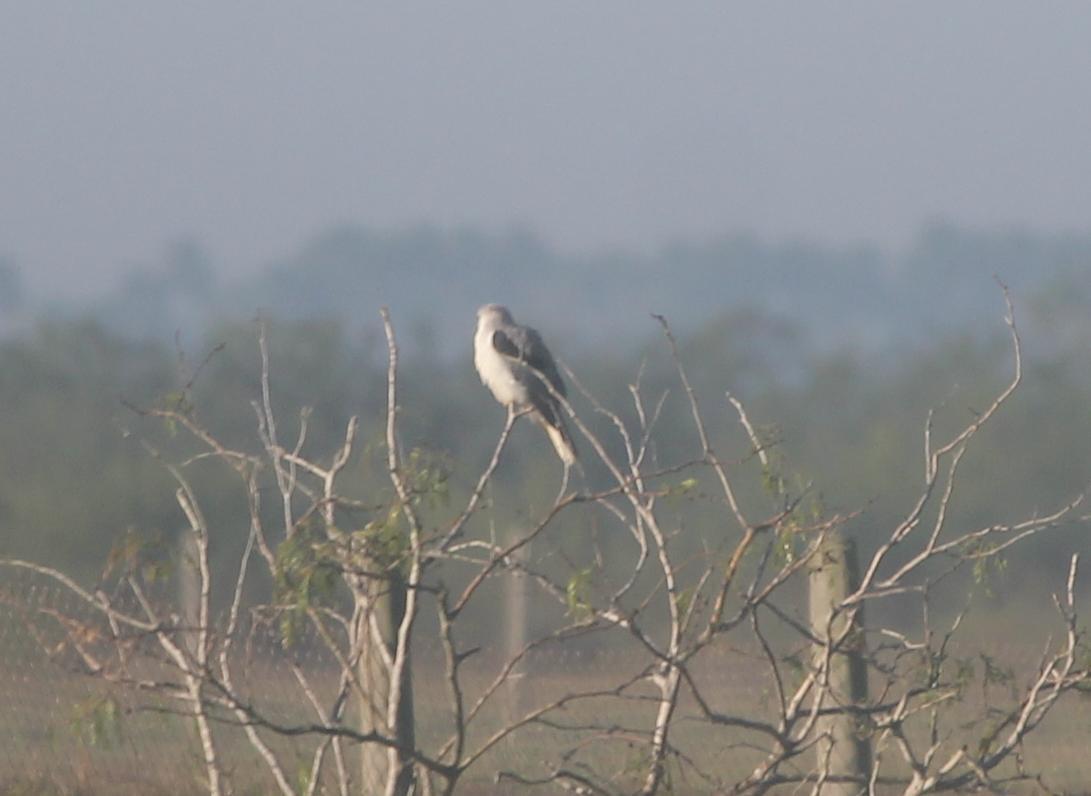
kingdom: Animalia
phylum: Chordata
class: Aves
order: Accipitriformes
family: Accipitridae
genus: Elanus
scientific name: Elanus leucurus
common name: White-tailed kite
